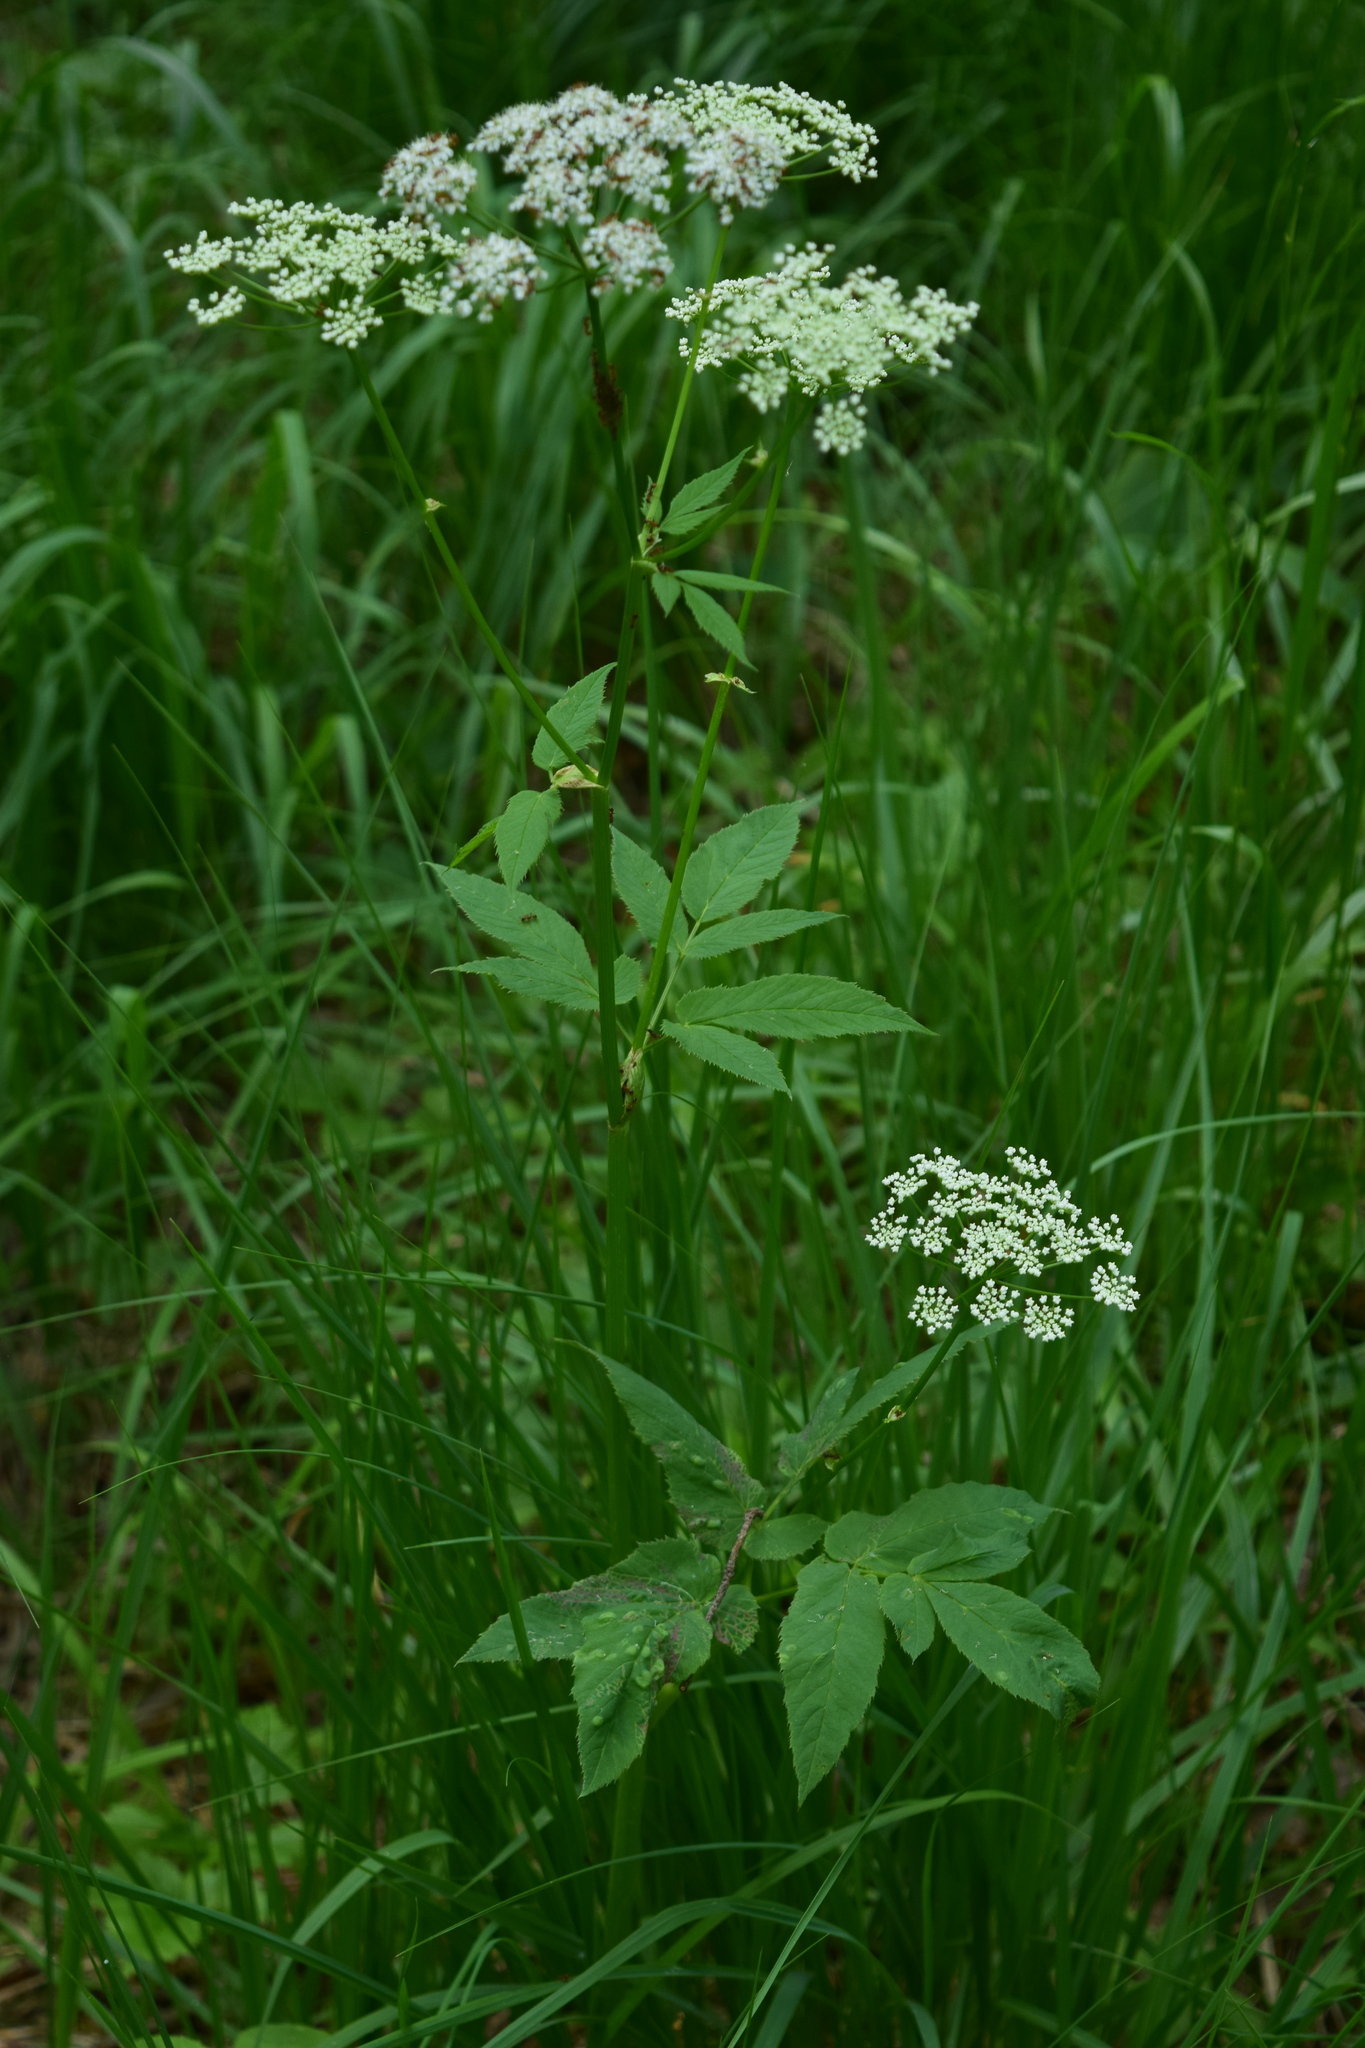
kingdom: Plantae
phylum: Tracheophyta
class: Magnoliopsida
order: Apiales
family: Apiaceae
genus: Aegopodium
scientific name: Aegopodium podagraria
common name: Ground-elder
